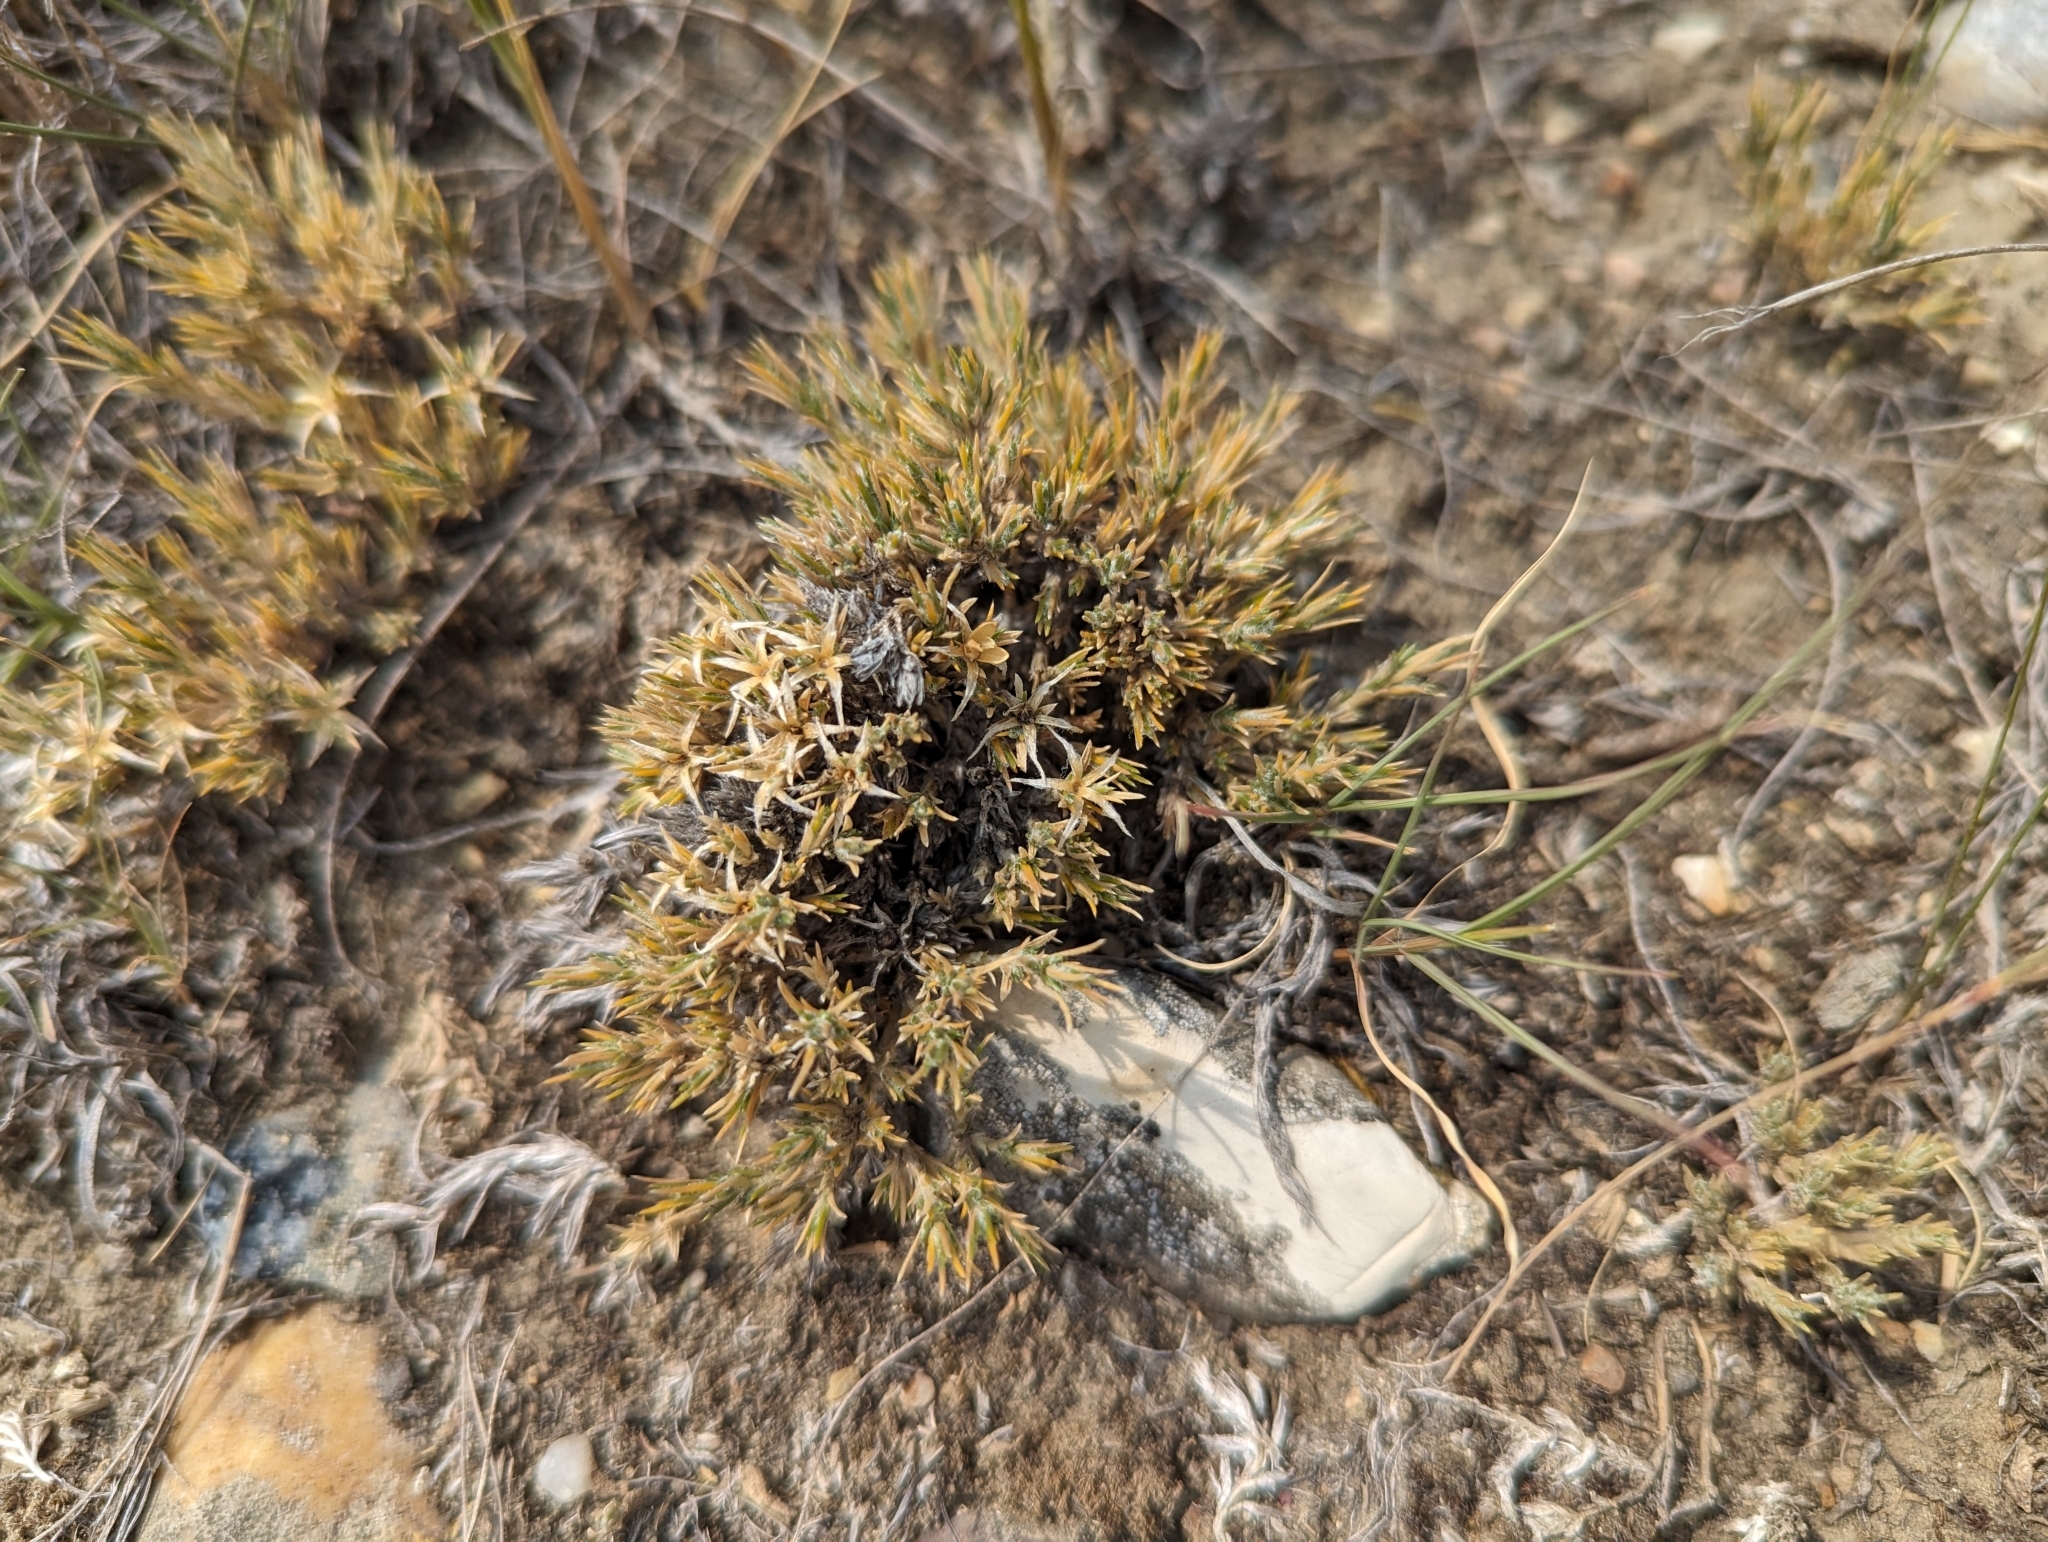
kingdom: Plantae
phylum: Tracheophyta
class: Magnoliopsida
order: Ericales
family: Polemoniaceae
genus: Phlox
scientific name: Phlox hoodii
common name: Moss phlox
